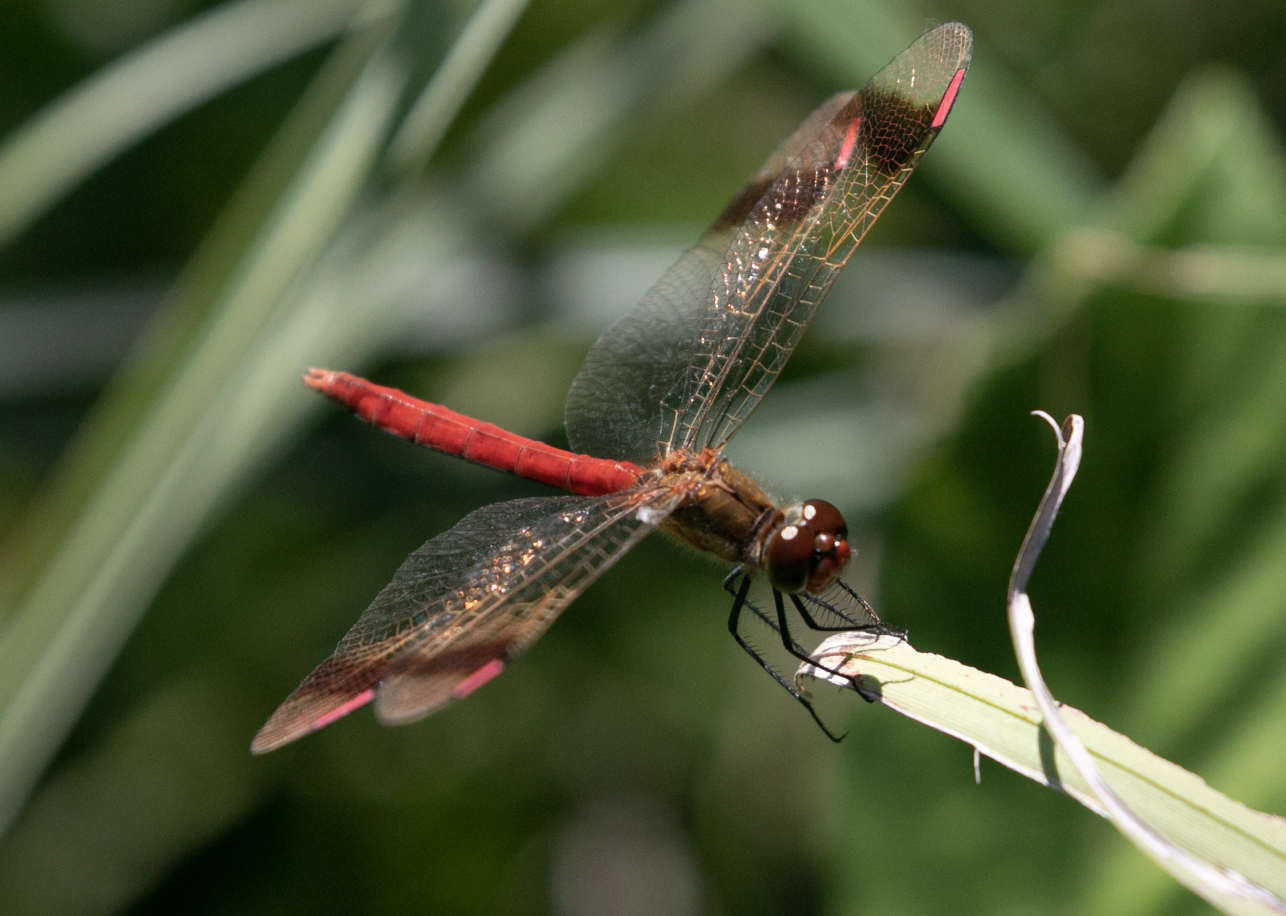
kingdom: Animalia
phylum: Arthropoda
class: Insecta
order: Odonata
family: Libellulidae
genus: Sympetrum
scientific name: Sympetrum pedemontanum
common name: Banded darter
